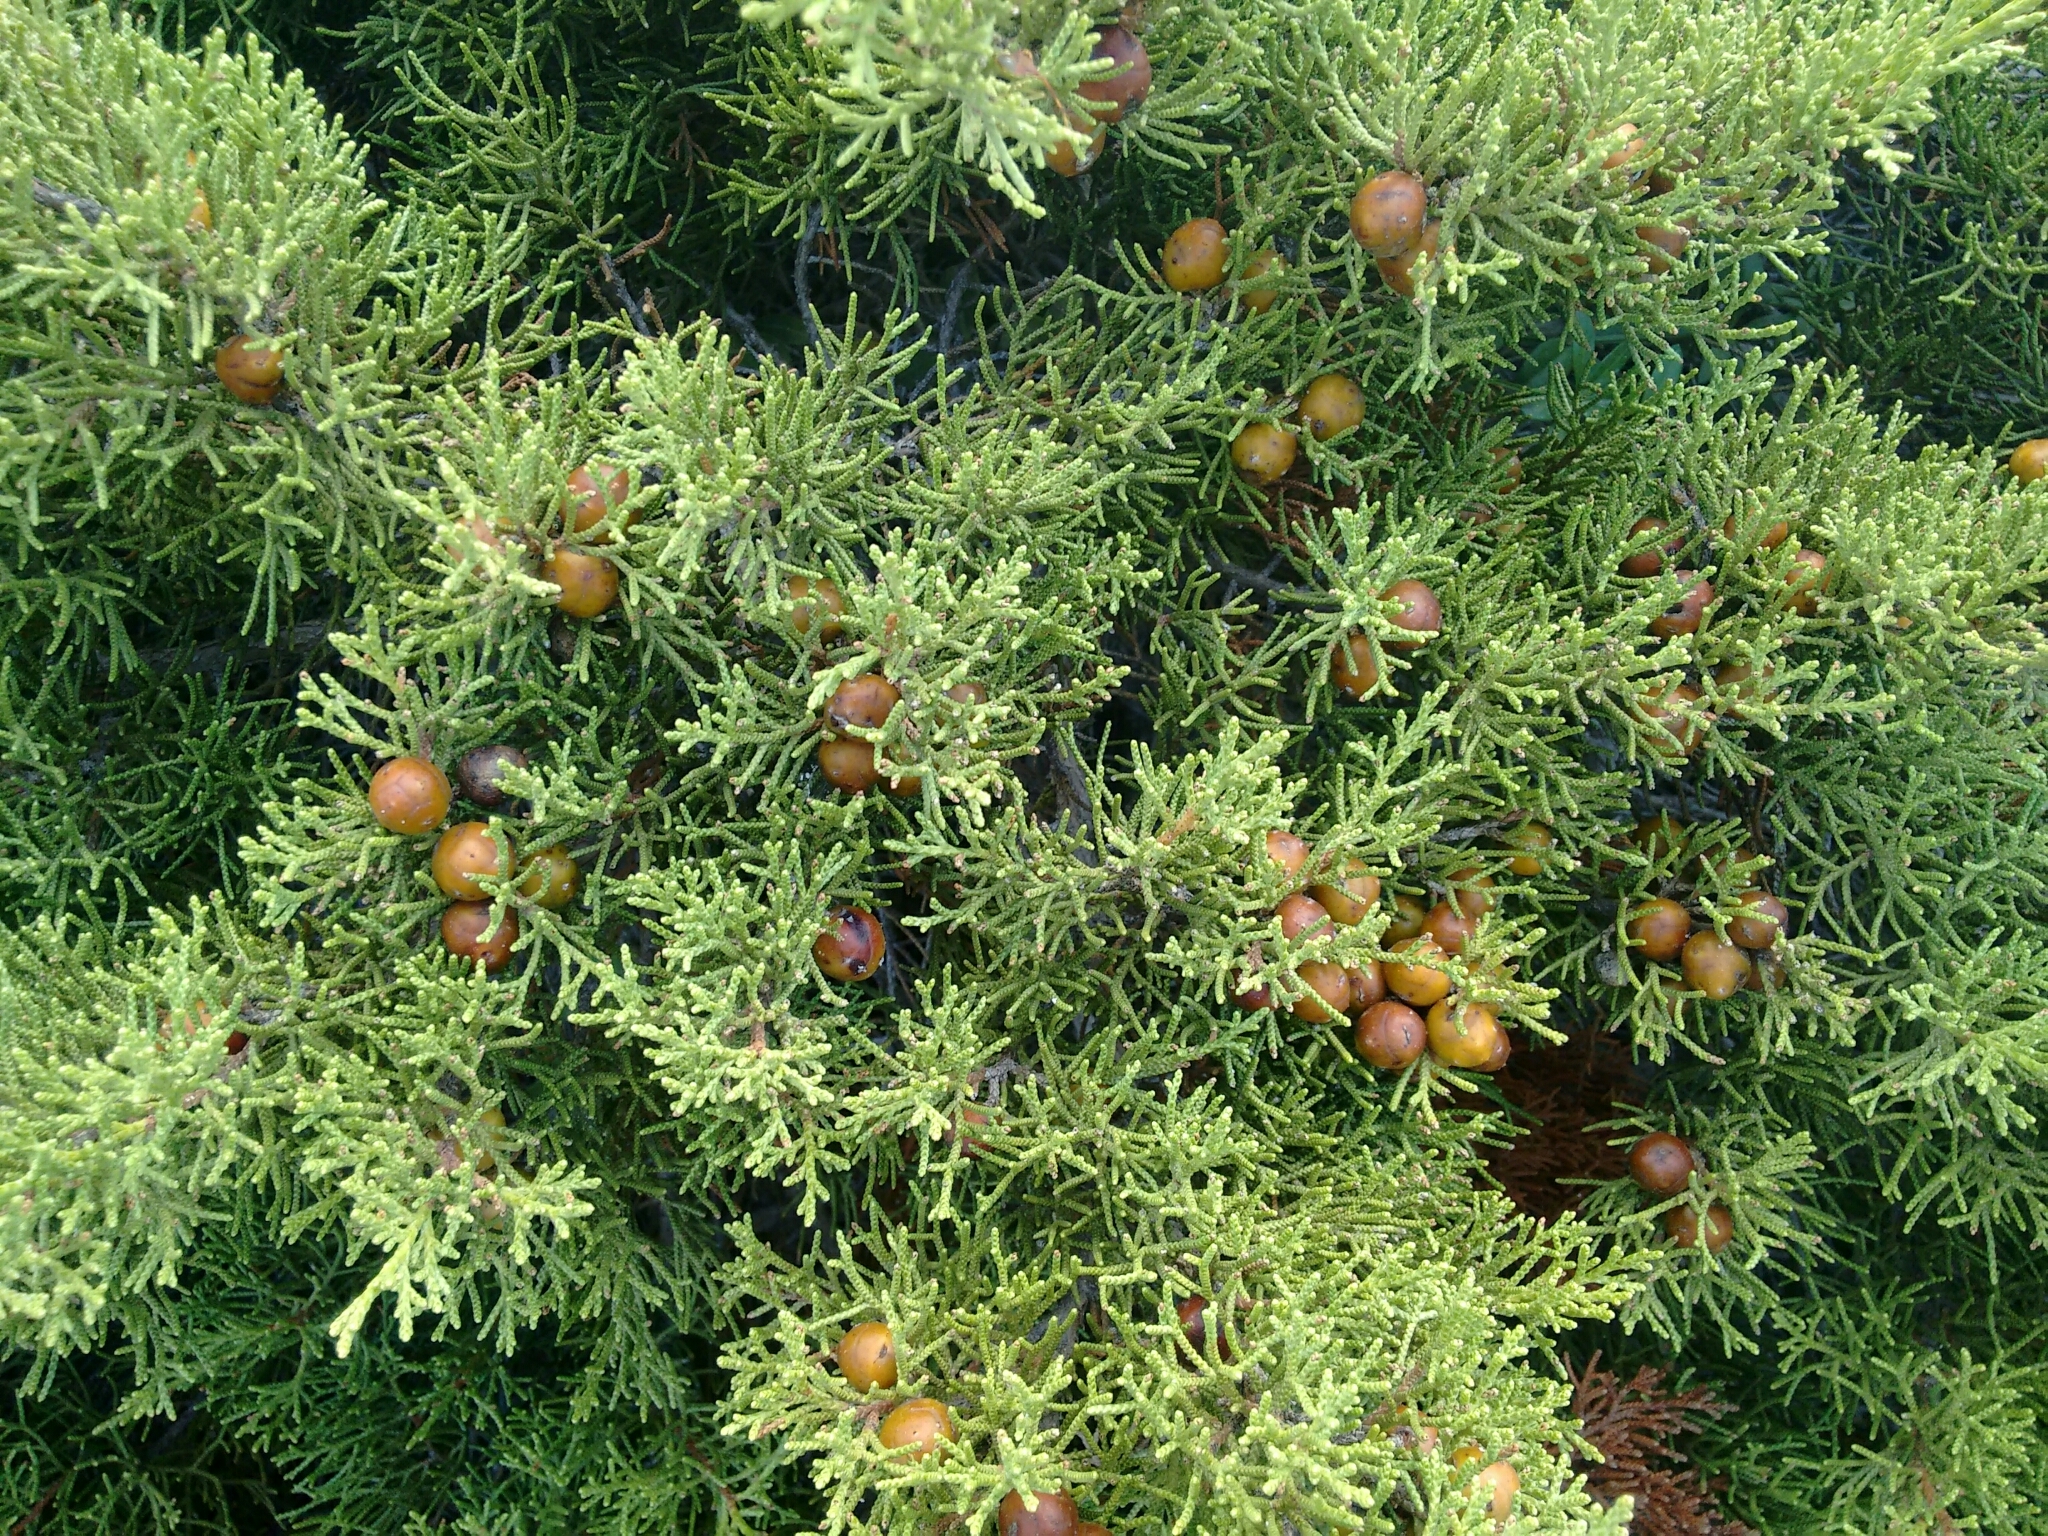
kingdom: Plantae
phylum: Tracheophyta
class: Pinopsida
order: Pinales
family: Cupressaceae
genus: Juniperus
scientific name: Juniperus phoenicea
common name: Phoenician juniper
